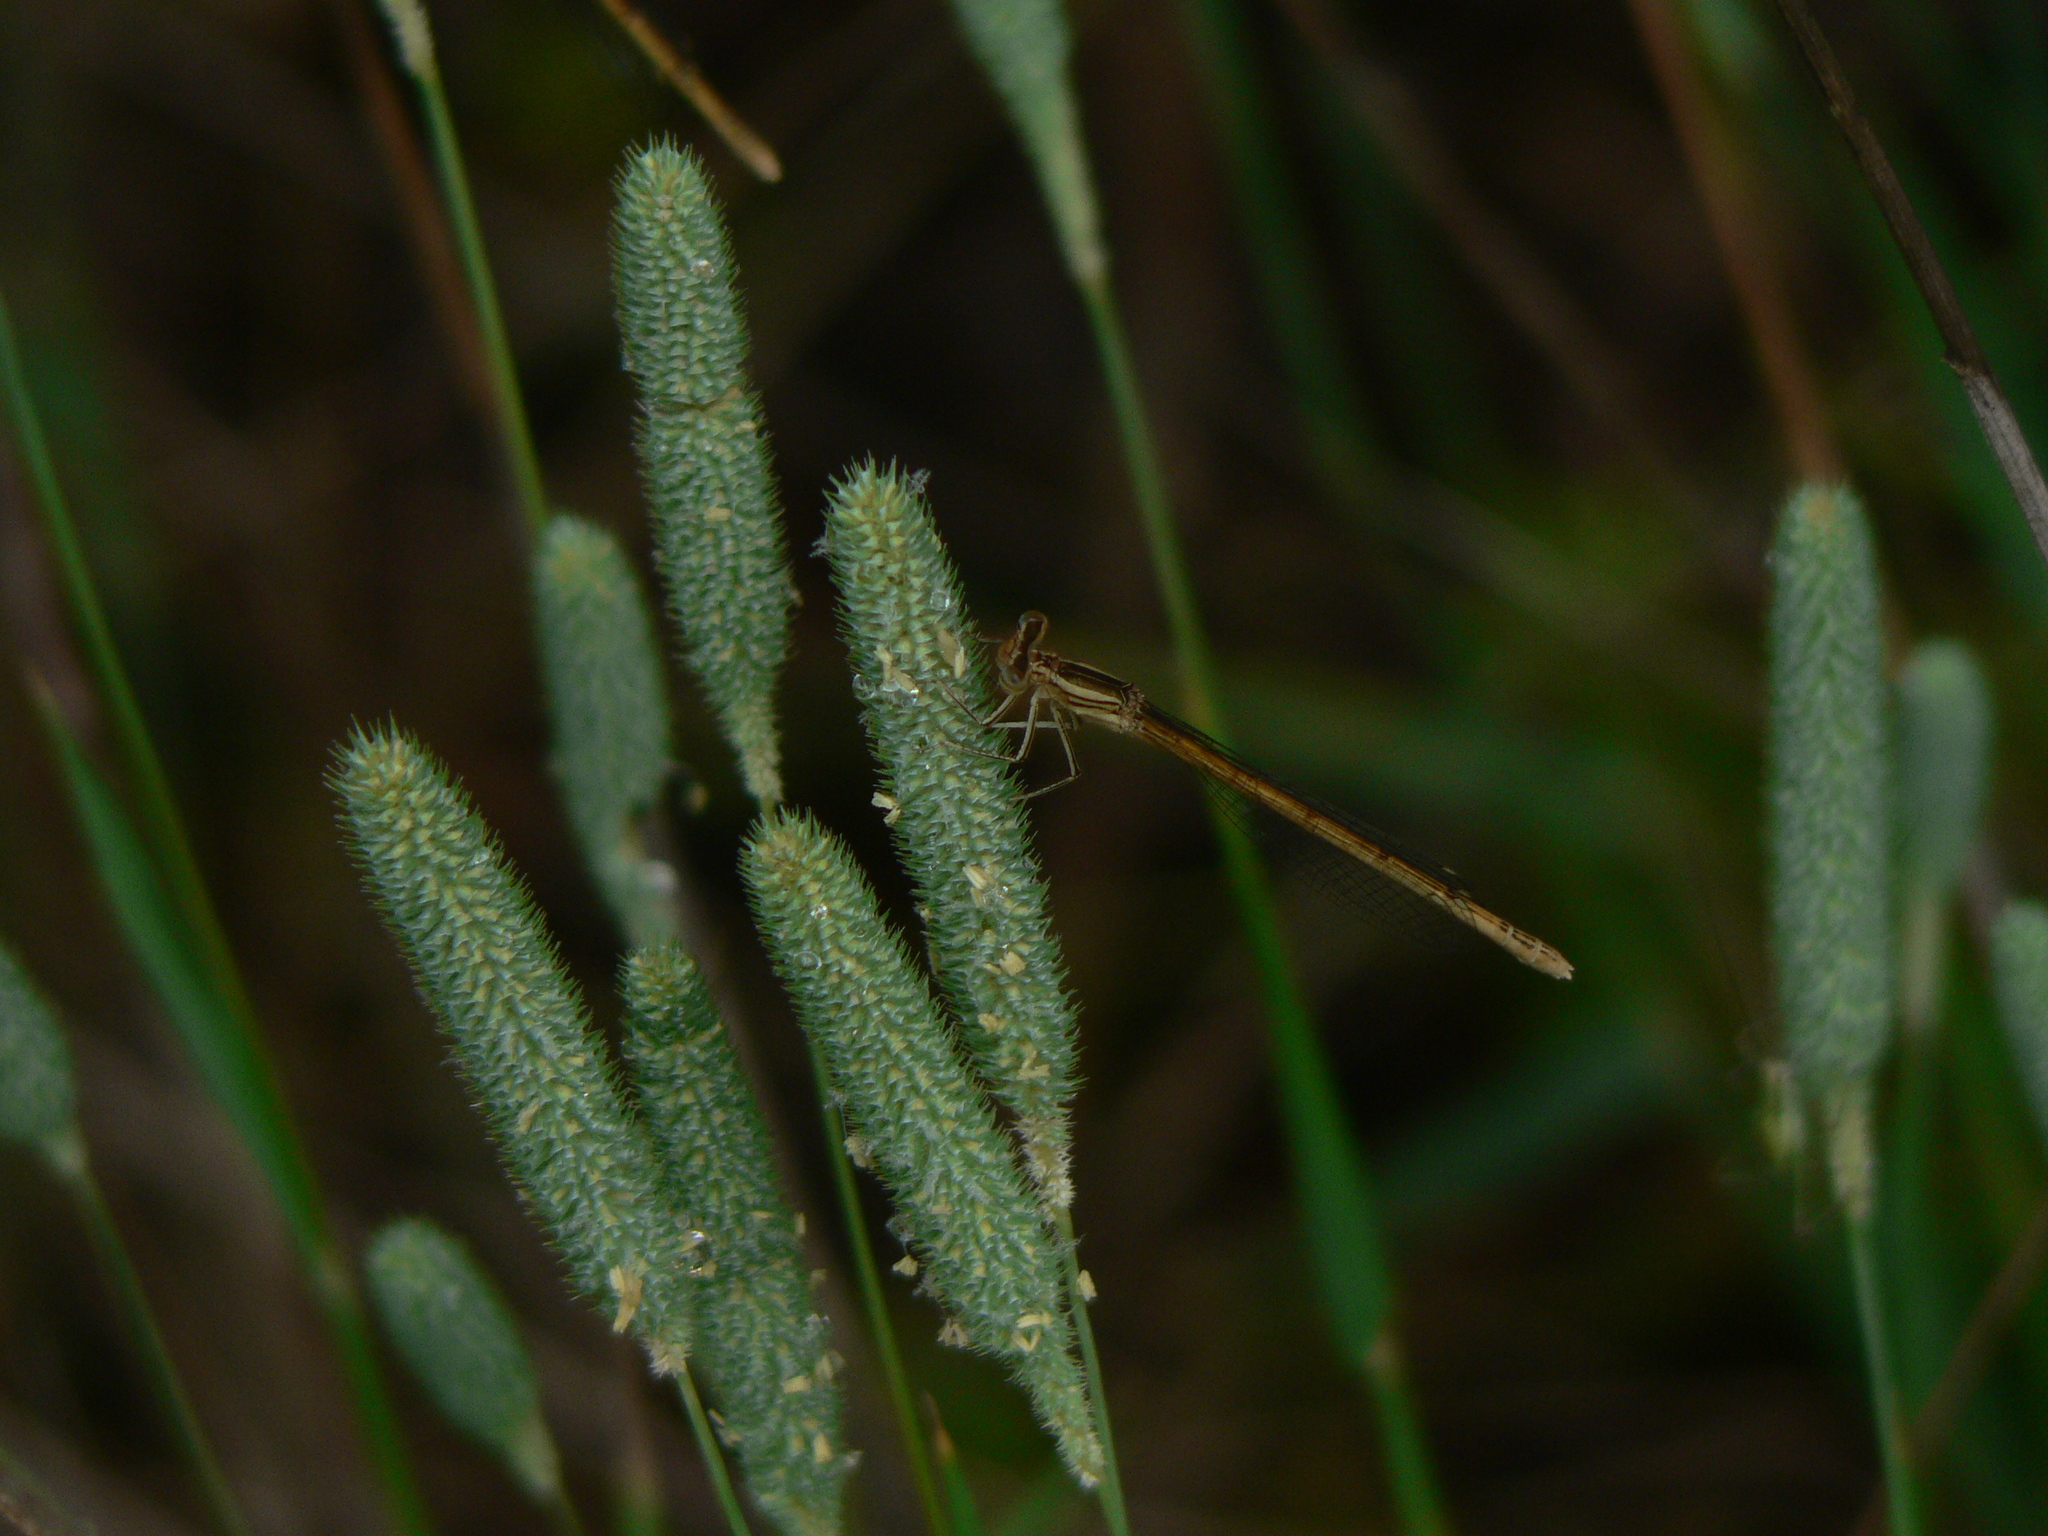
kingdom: Animalia
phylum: Arthropoda
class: Insecta
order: Odonata
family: Platycnemididae
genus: Platycnemis
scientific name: Platycnemis acutipennis
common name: Orange featherleg
